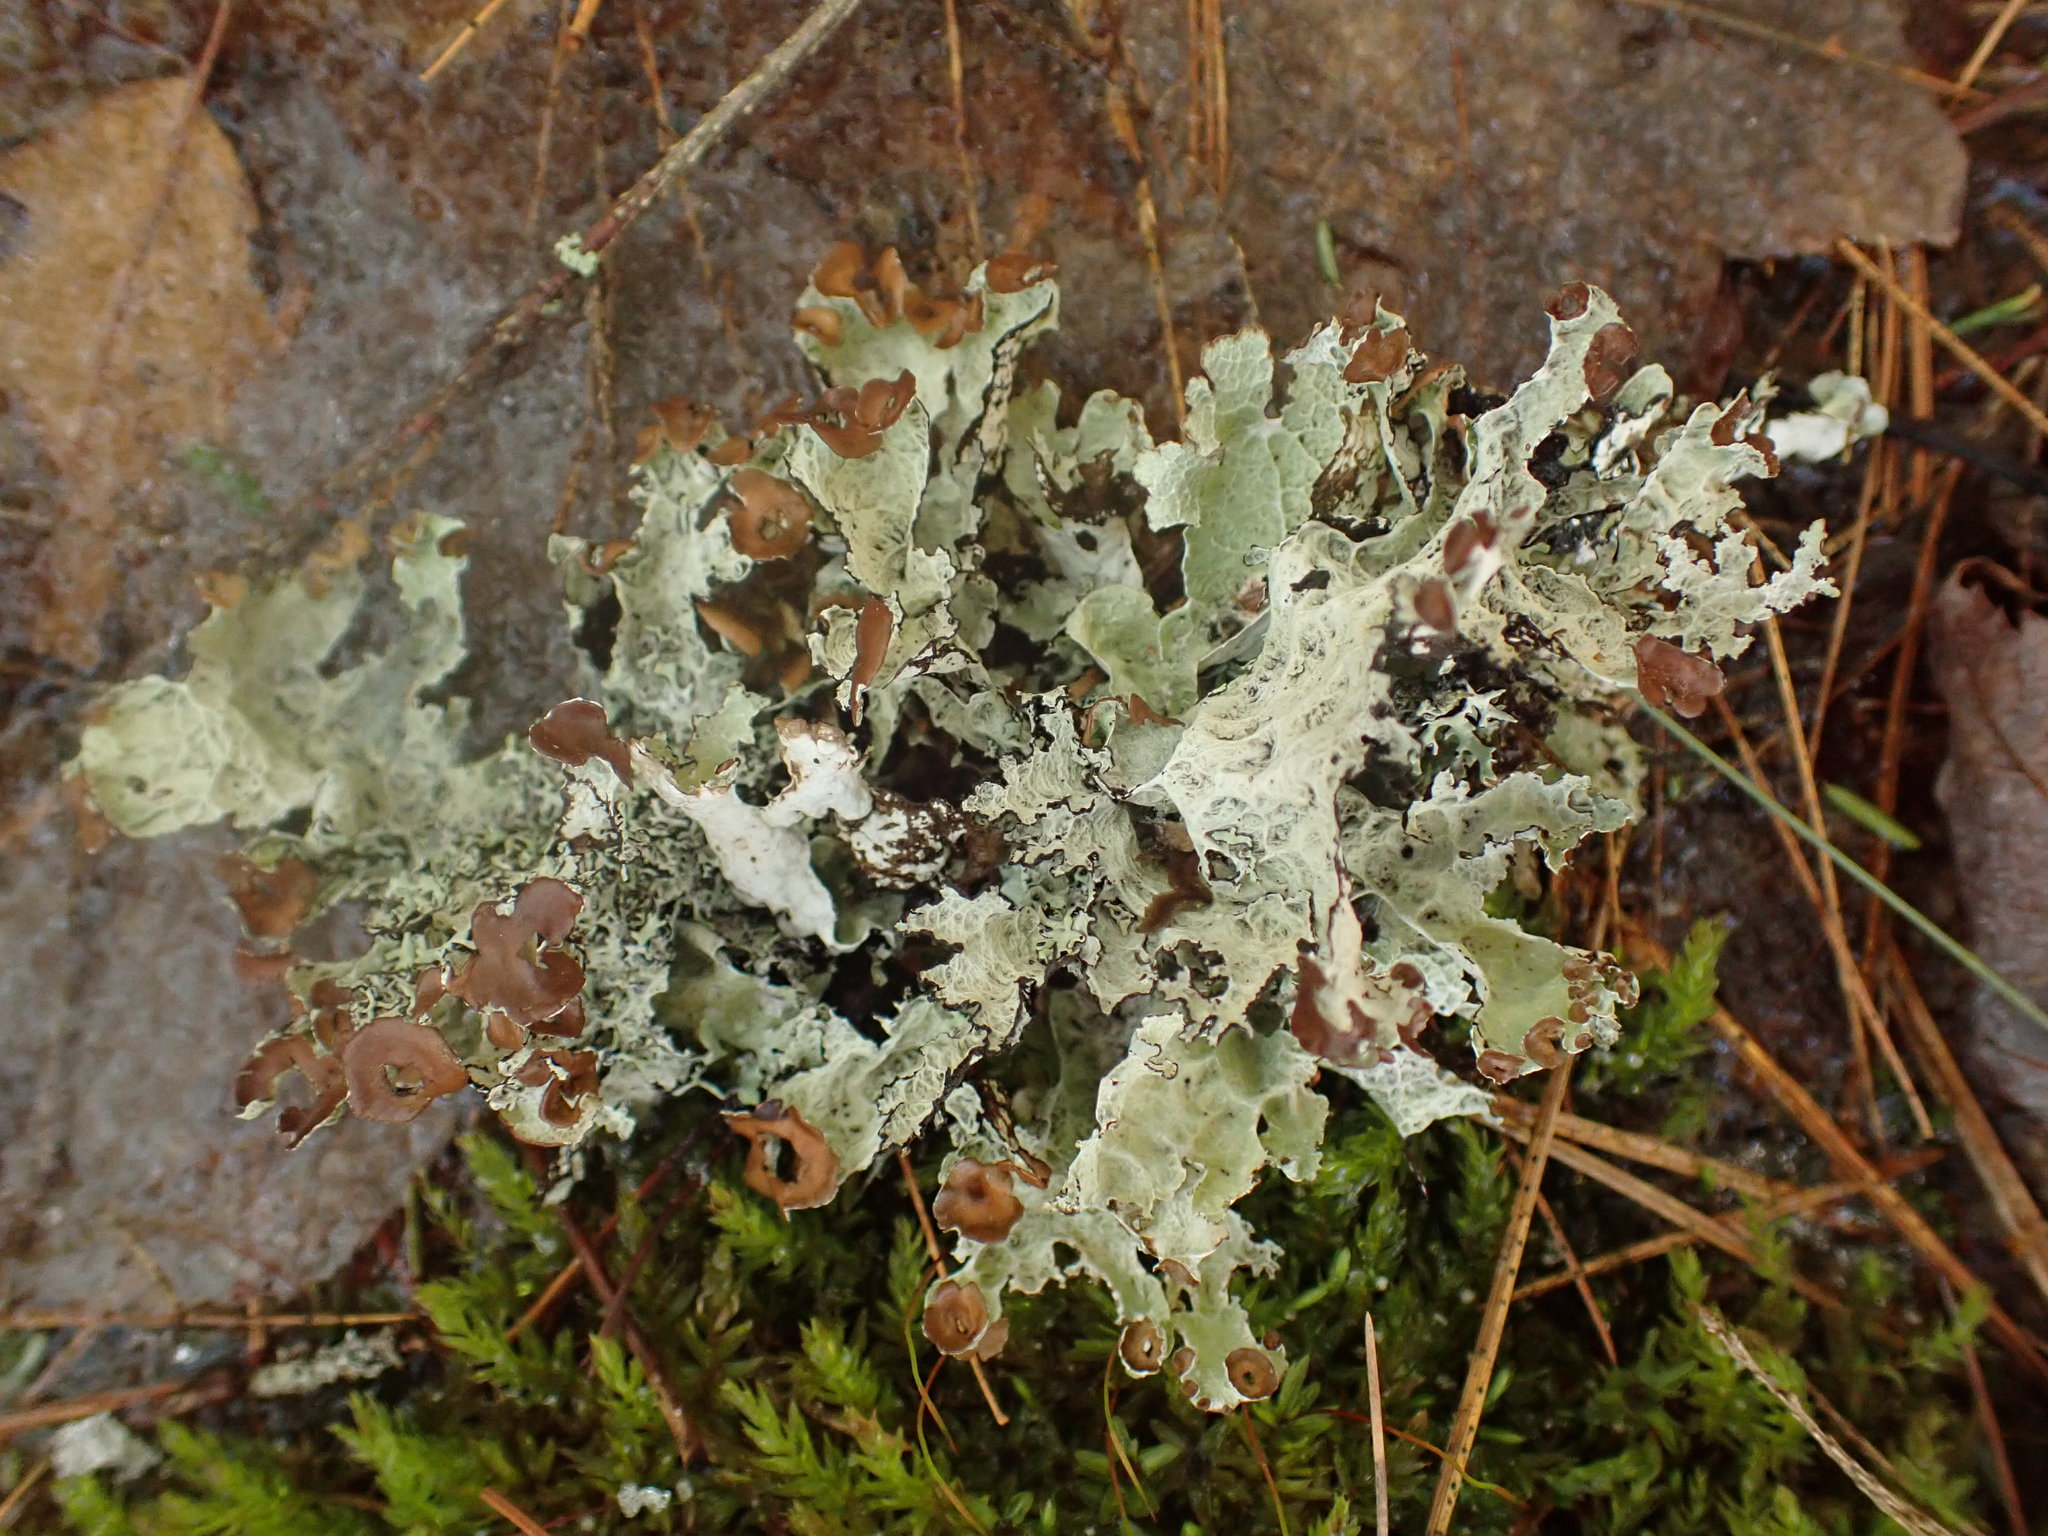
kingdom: Fungi
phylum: Ascomycota
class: Lecanoromycetes
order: Lecanorales
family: Parmeliaceae
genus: Platismatia
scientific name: Platismatia tuckermanii
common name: Crumpled rag lichen
